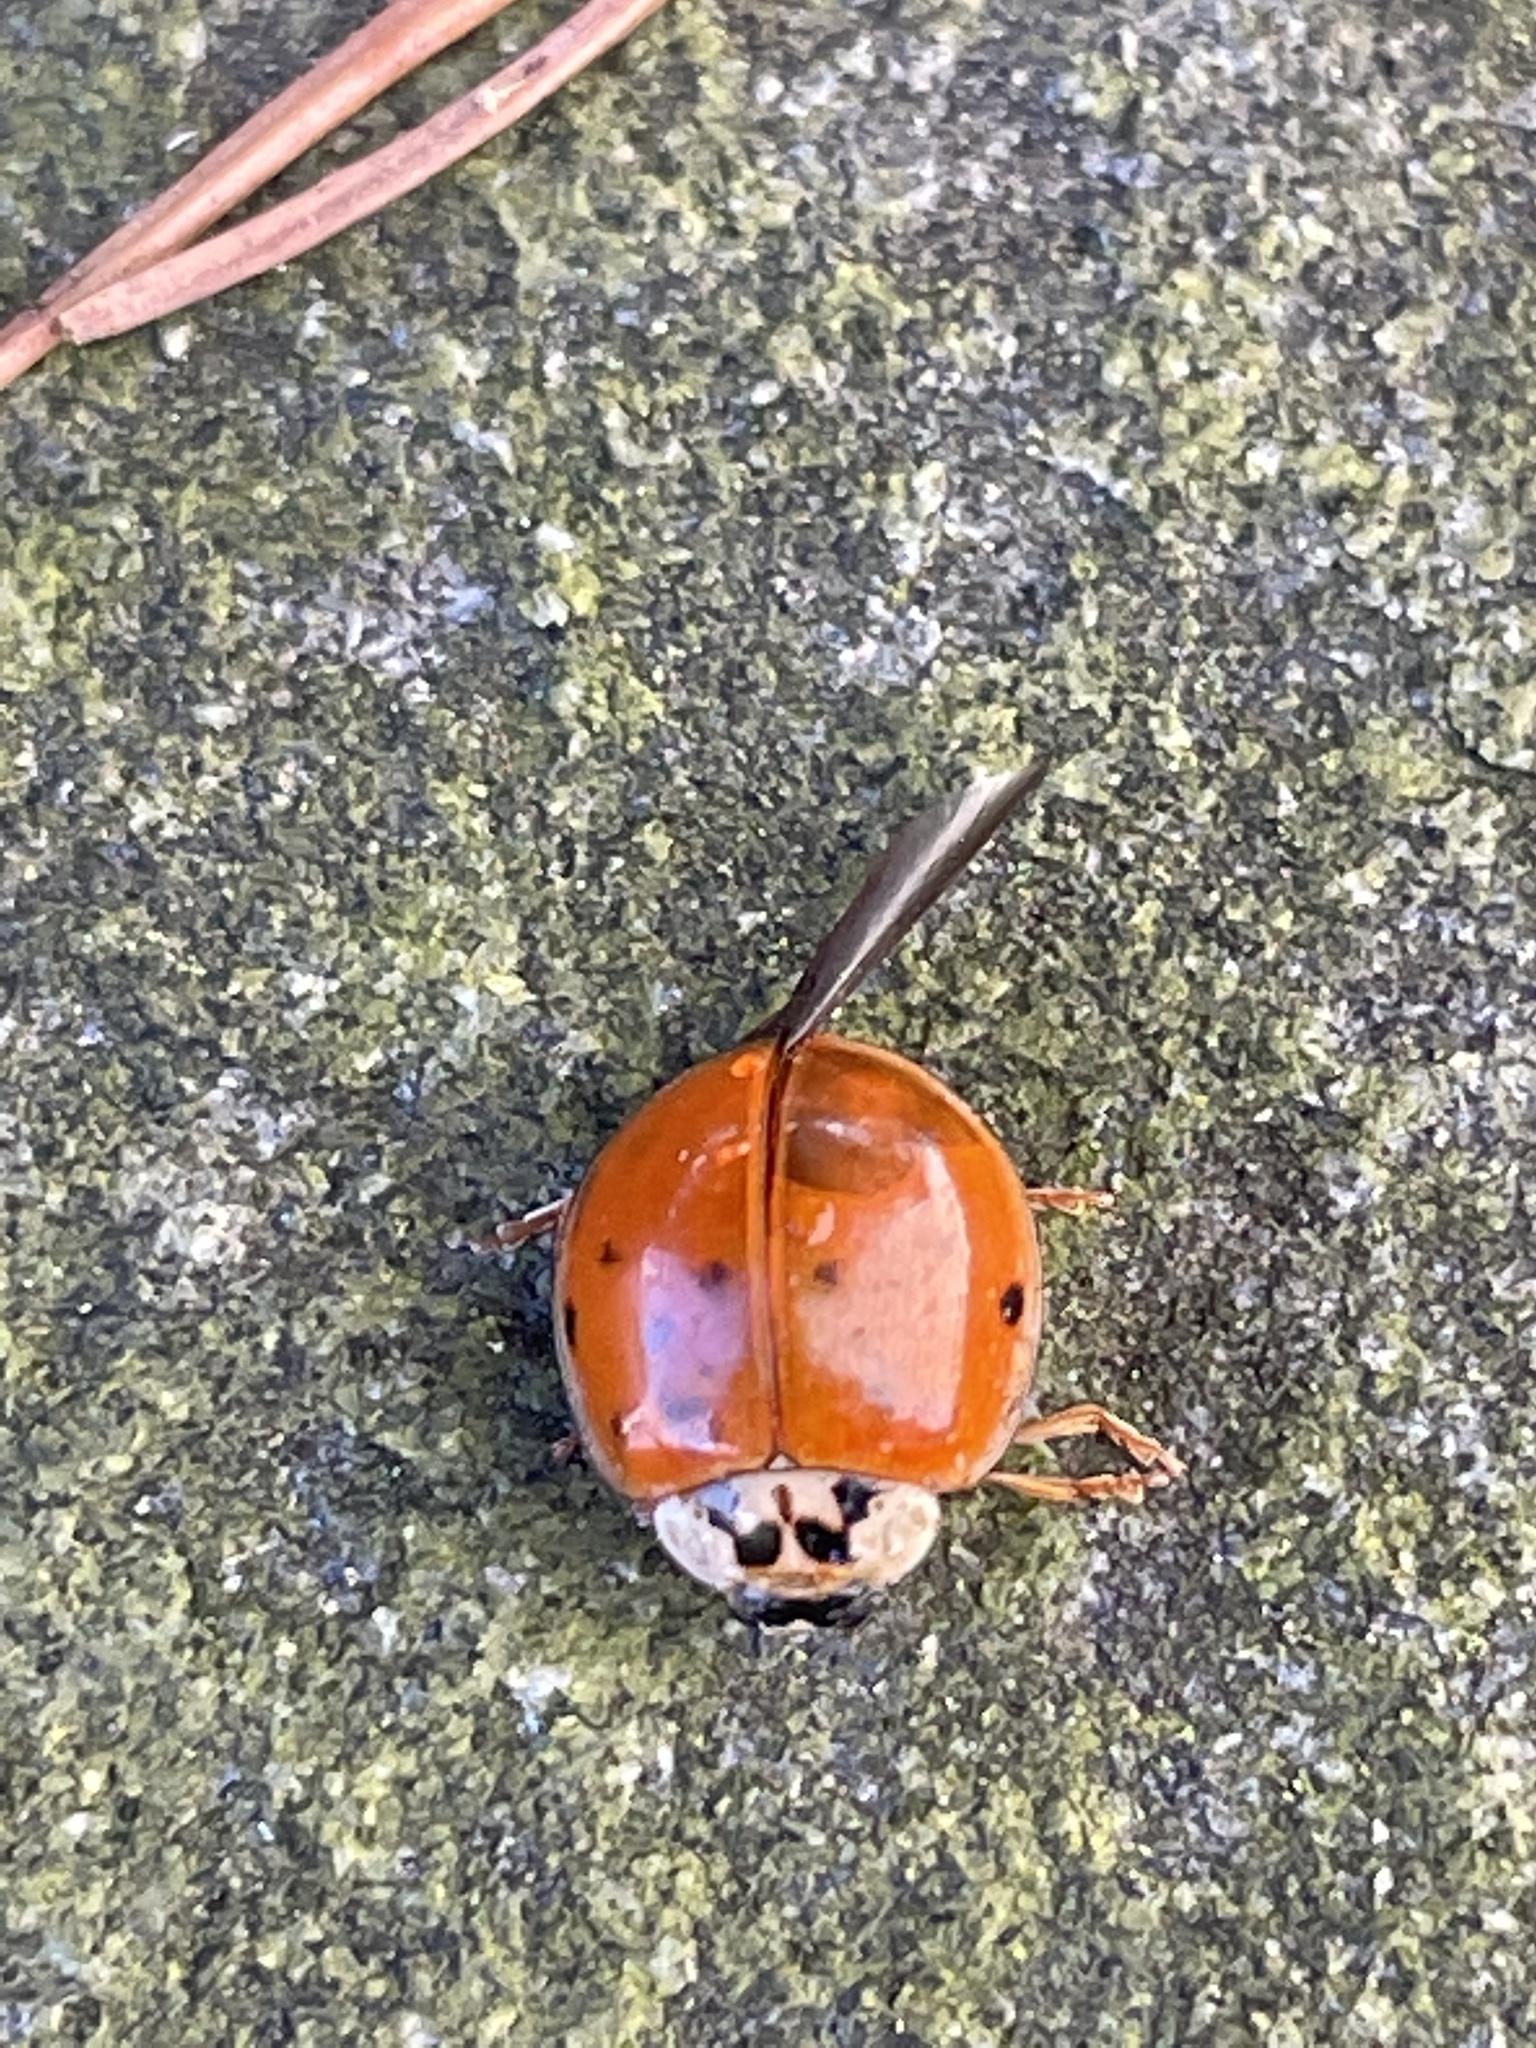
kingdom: Animalia
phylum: Arthropoda
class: Insecta
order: Coleoptera
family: Coccinellidae
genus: Harmonia
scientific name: Harmonia axyridis
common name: Harlequin ladybird
